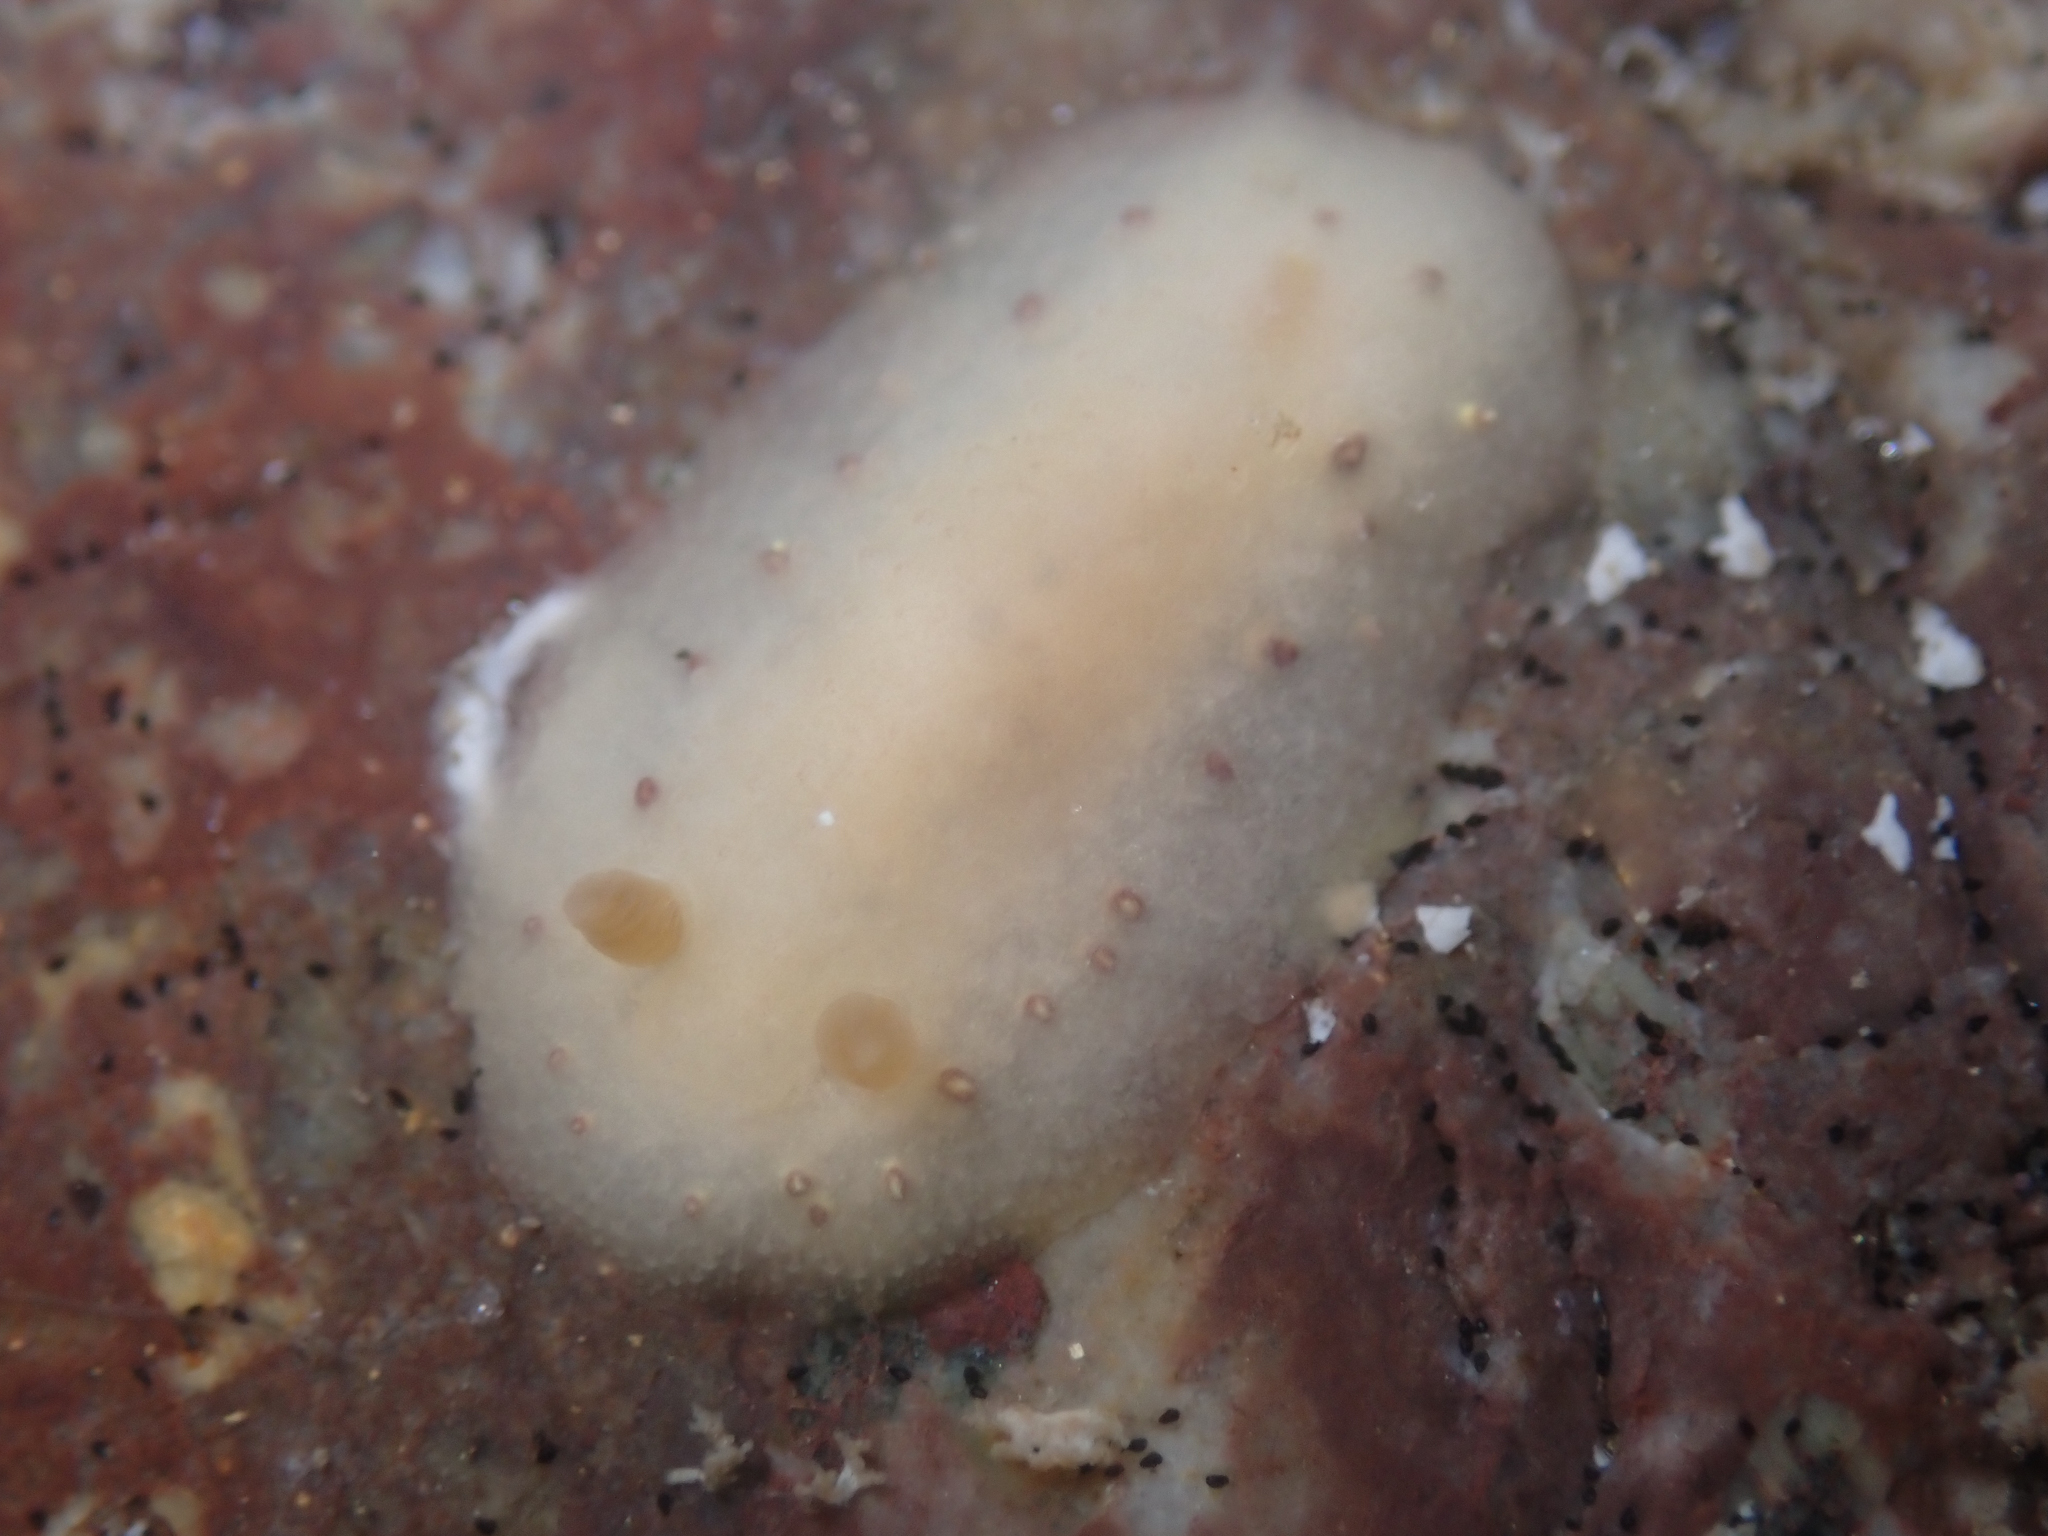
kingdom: Animalia
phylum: Mollusca
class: Gastropoda
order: Nudibranchia
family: Cadlinidae
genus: Cadlina
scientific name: Cadlina sparsa
